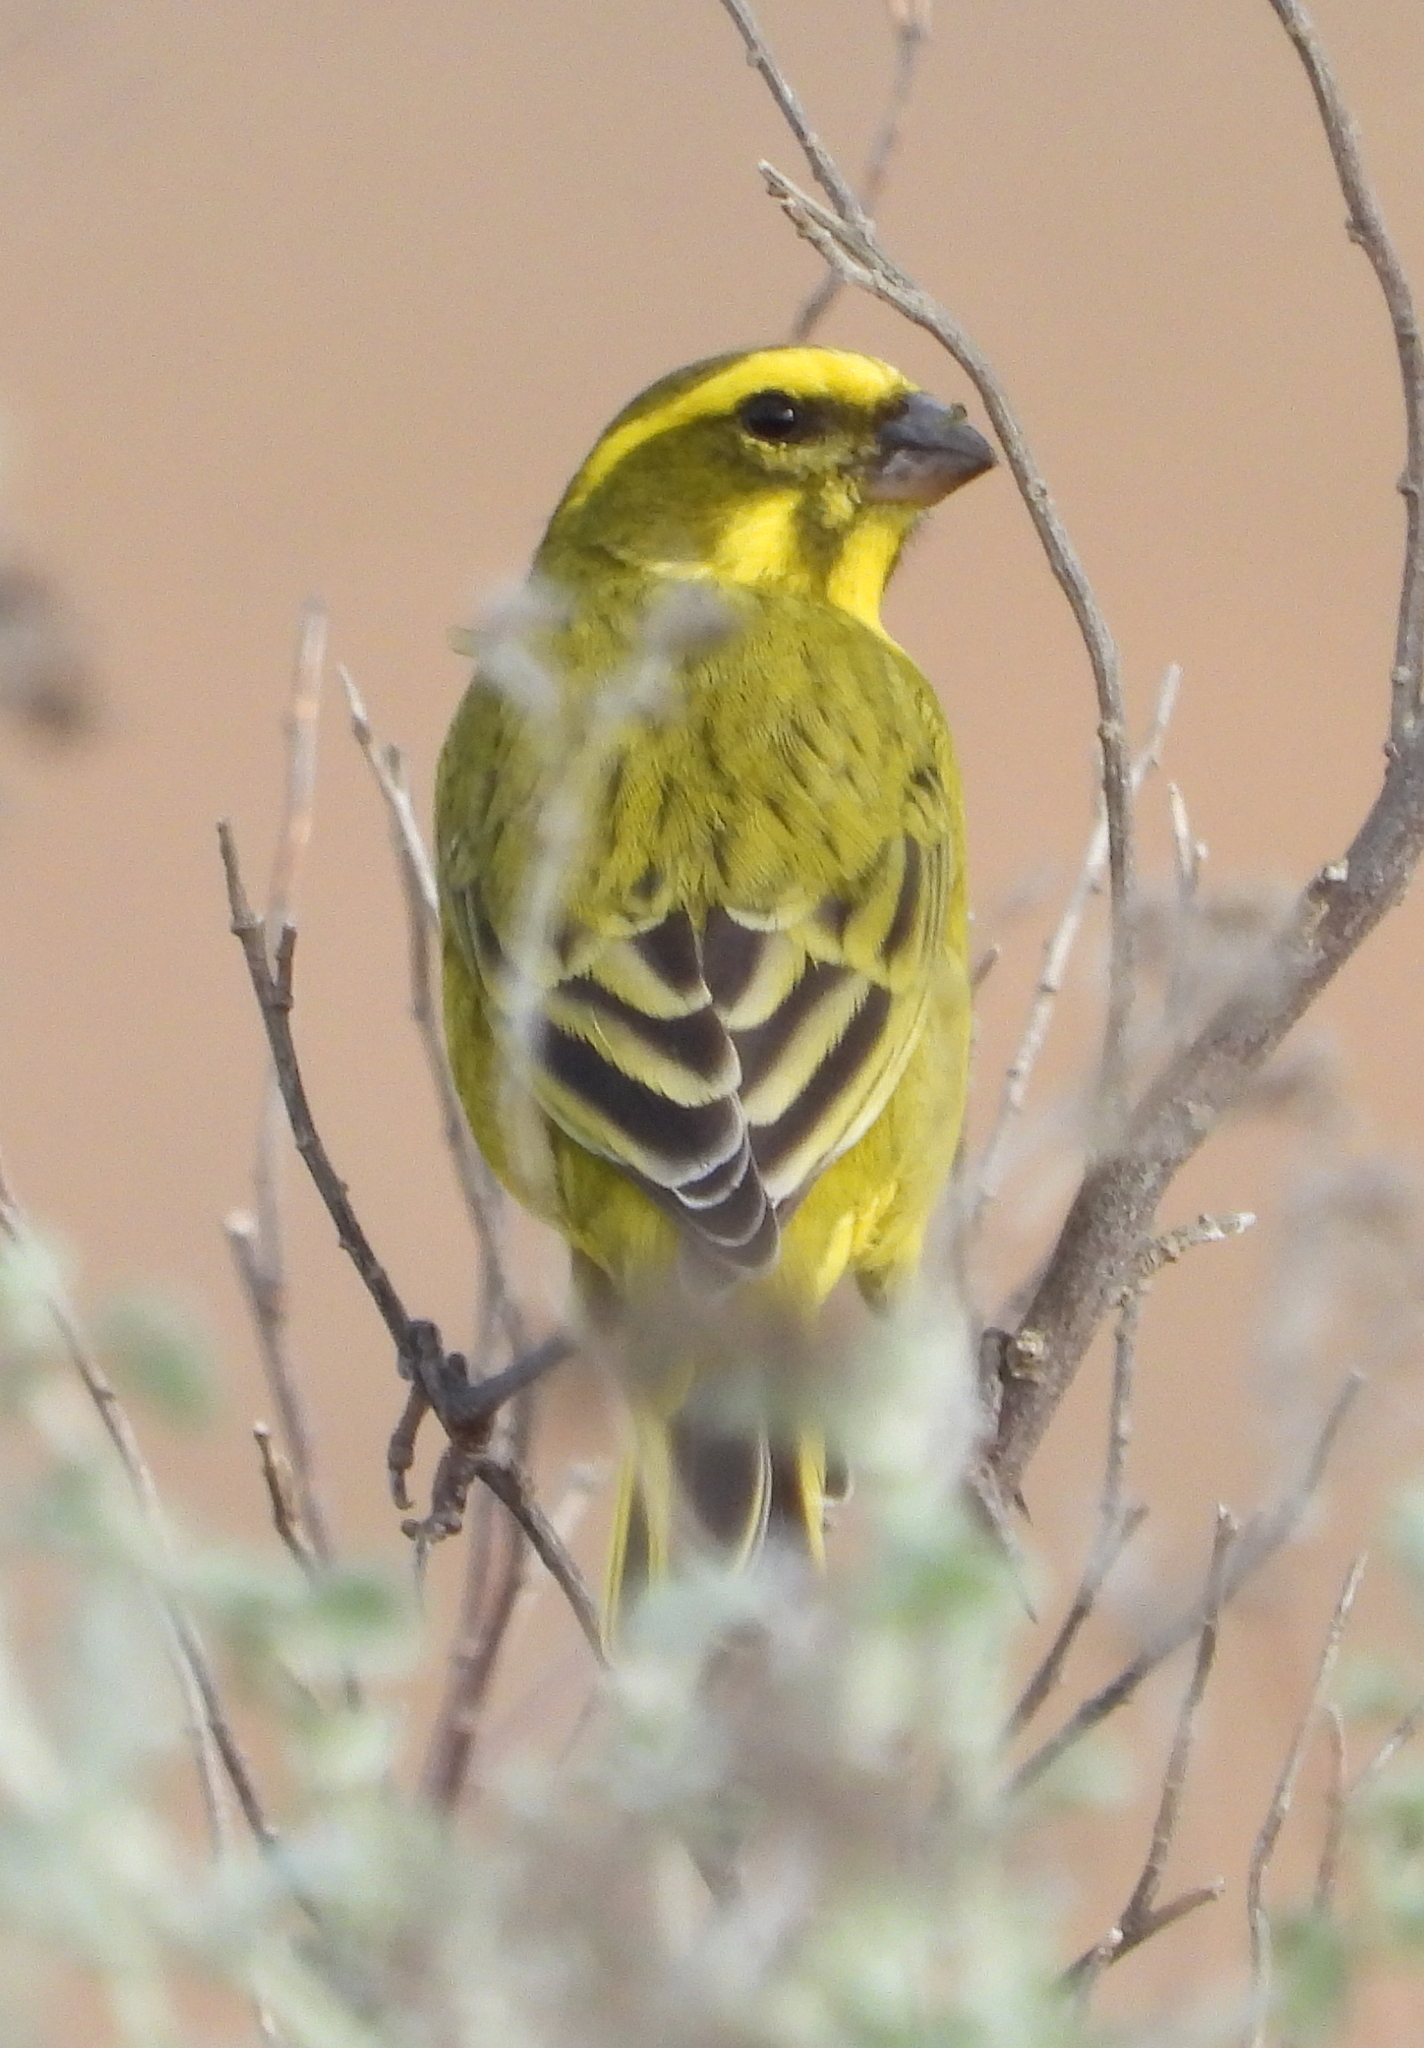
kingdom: Animalia
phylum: Chordata
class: Aves
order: Passeriformes
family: Fringillidae
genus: Crithagra
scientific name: Crithagra flaviventris
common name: Yellow canary
